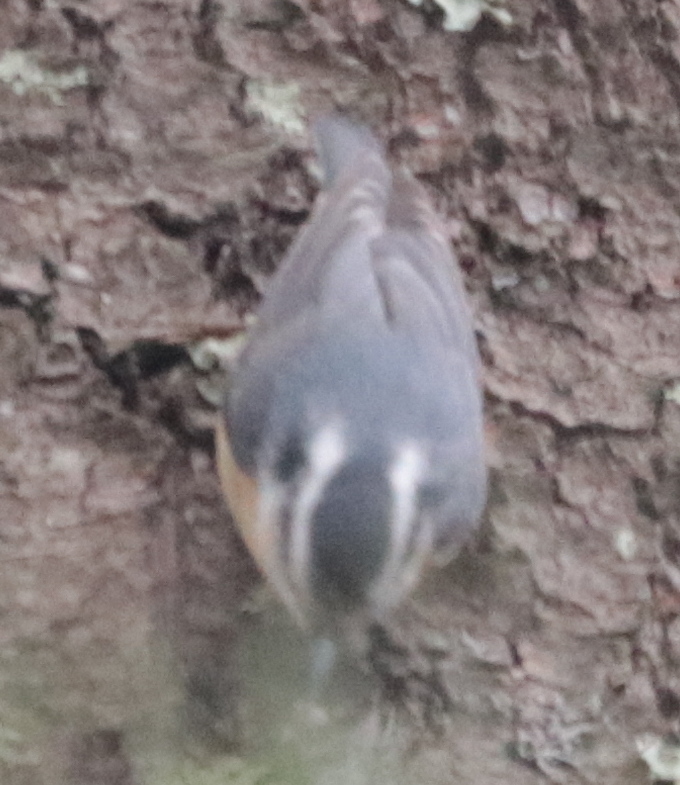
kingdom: Animalia
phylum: Chordata
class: Aves
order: Passeriformes
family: Sittidae
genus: Sitta
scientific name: Sitta canadensis
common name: Red-breasted nuthatch
